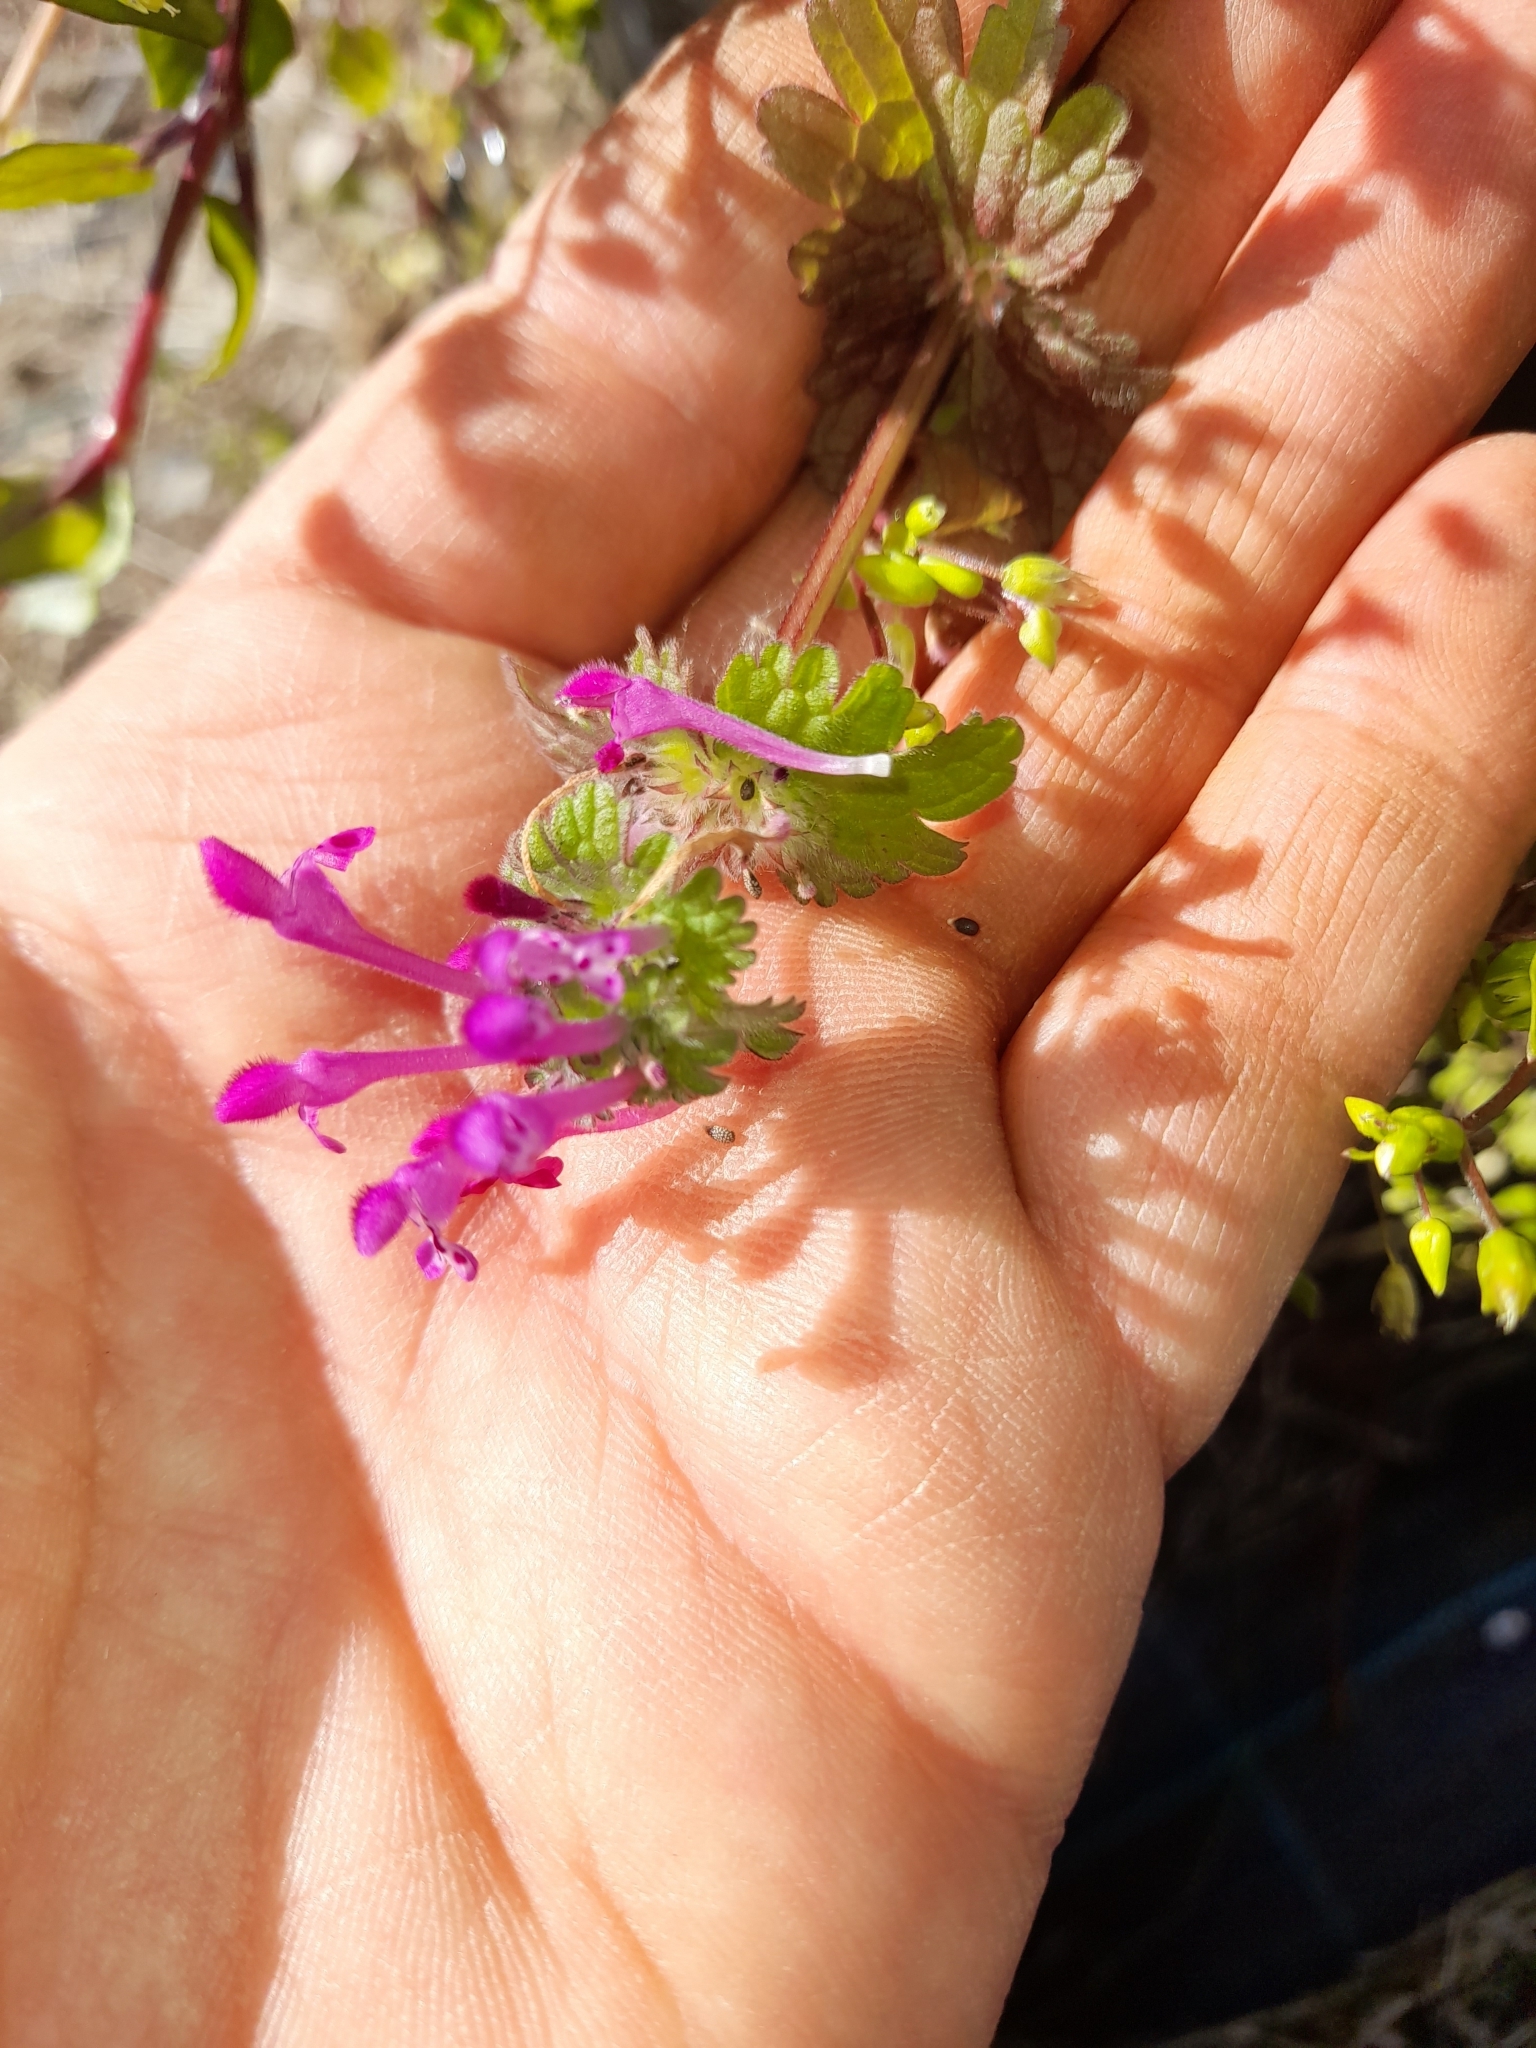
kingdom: Plantae
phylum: Tracheophyta
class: Magnoliopsida
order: Lamiales
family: Lamiaceae
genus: Lamium
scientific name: Lamium amplexicaule
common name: Henbit dead-nettle
